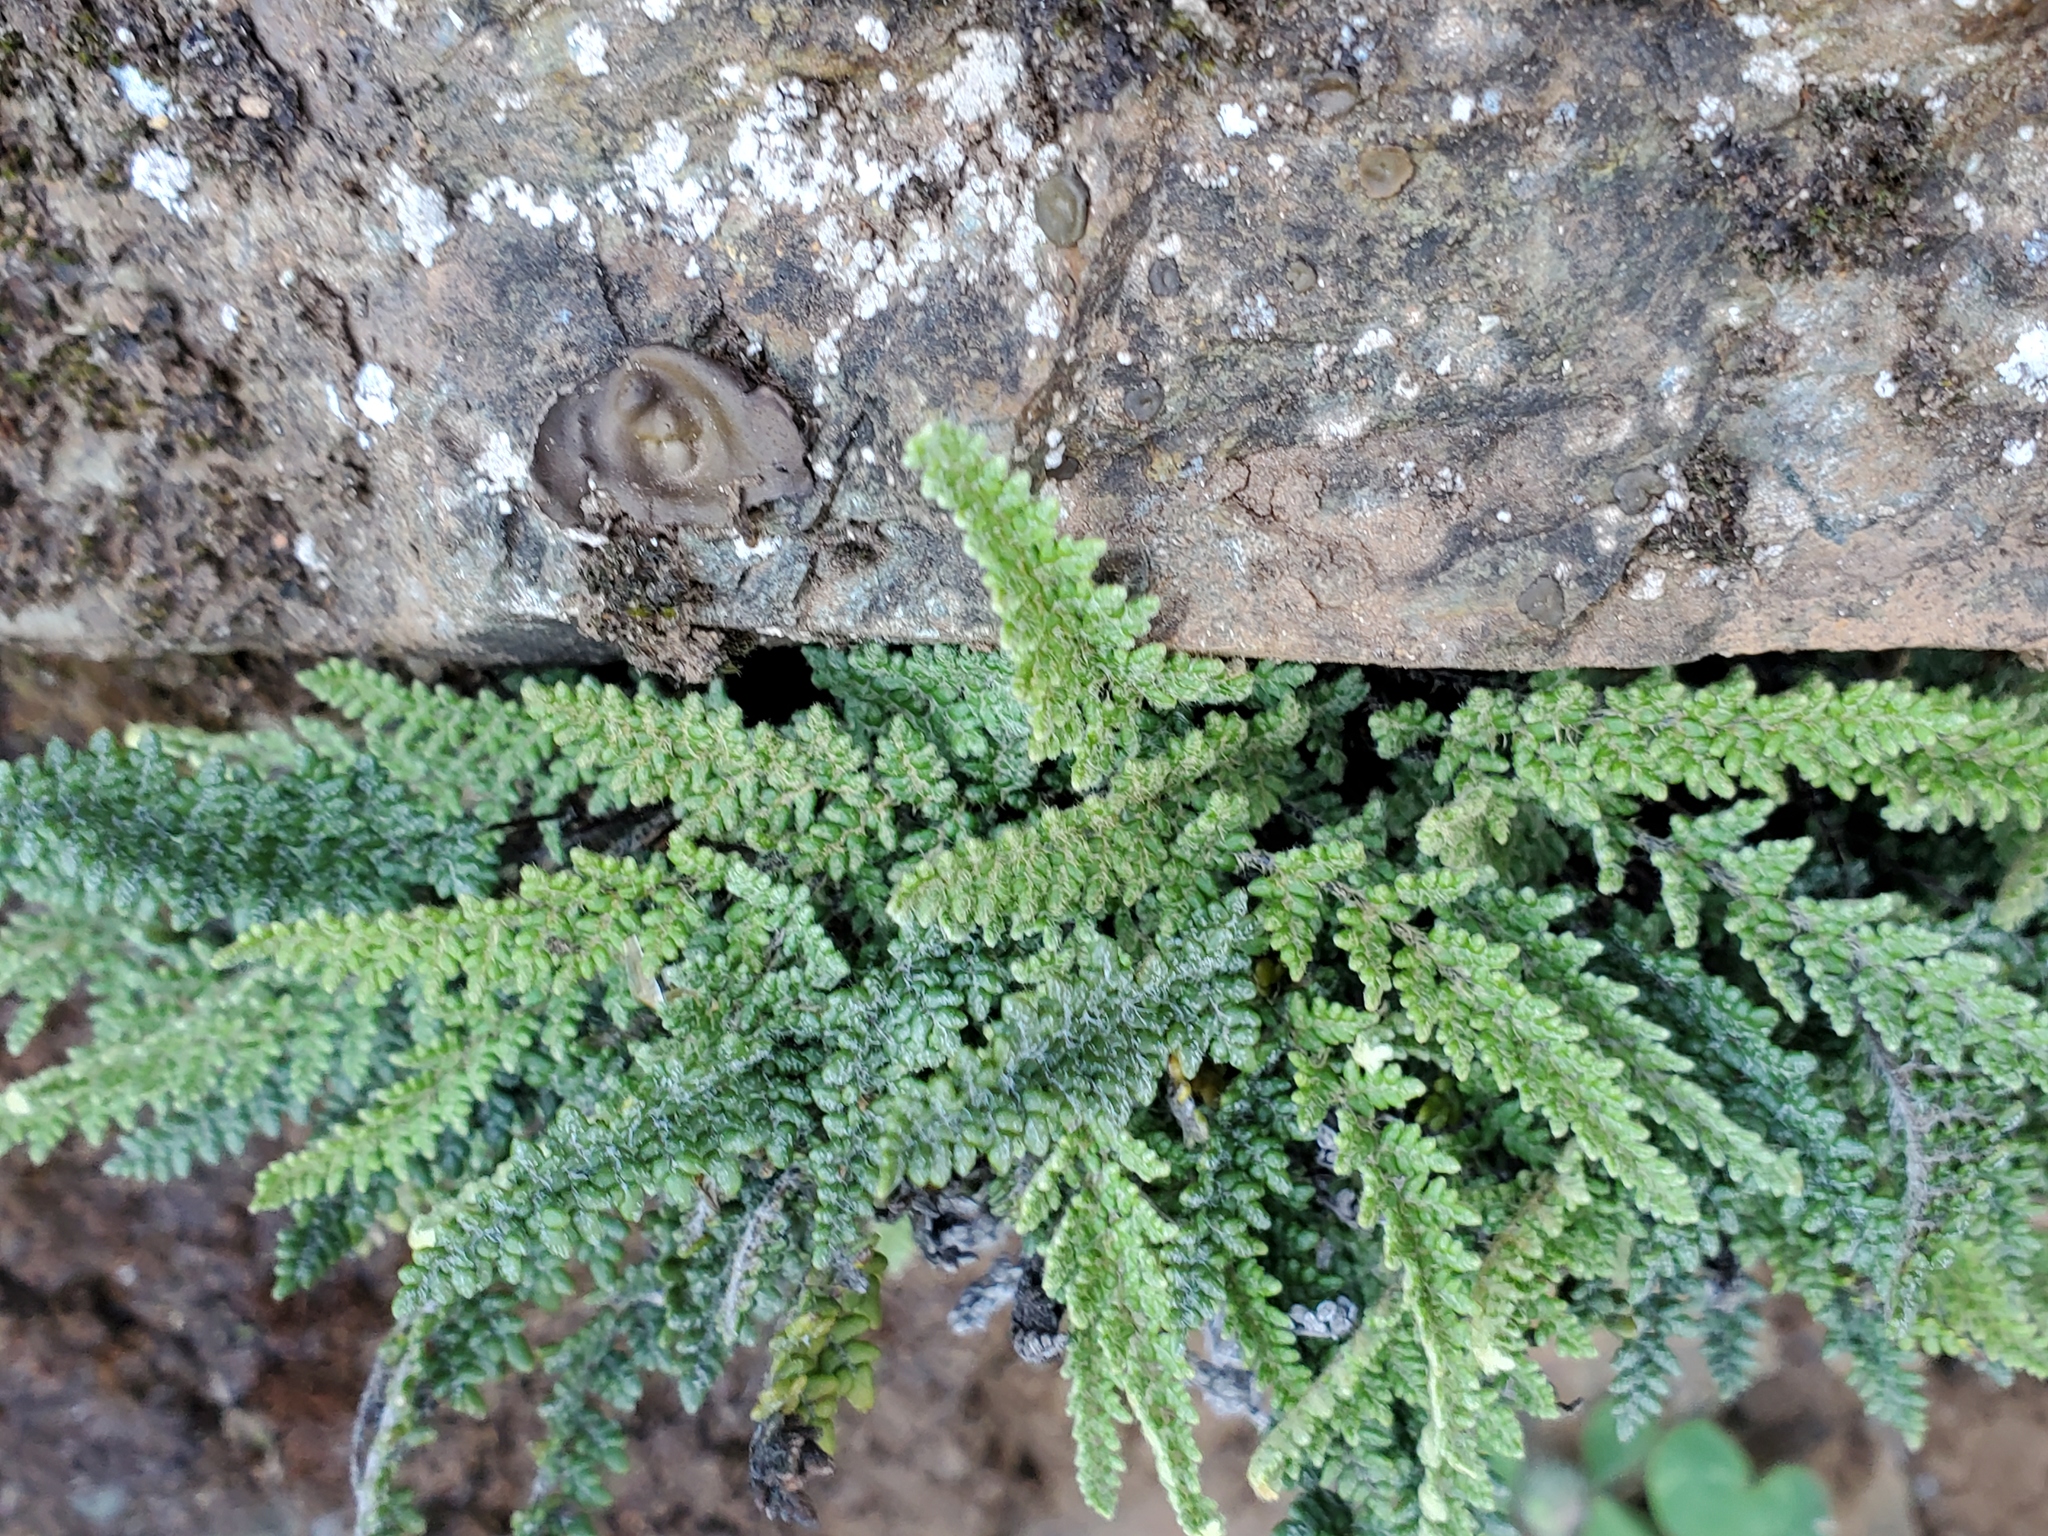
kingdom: Plantae
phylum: Tracheophyta
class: Polypodiopsida
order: Polypodiales
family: Pteridaceae
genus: Myriopteris
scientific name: Myriopteris gracillima
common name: Lace fern
